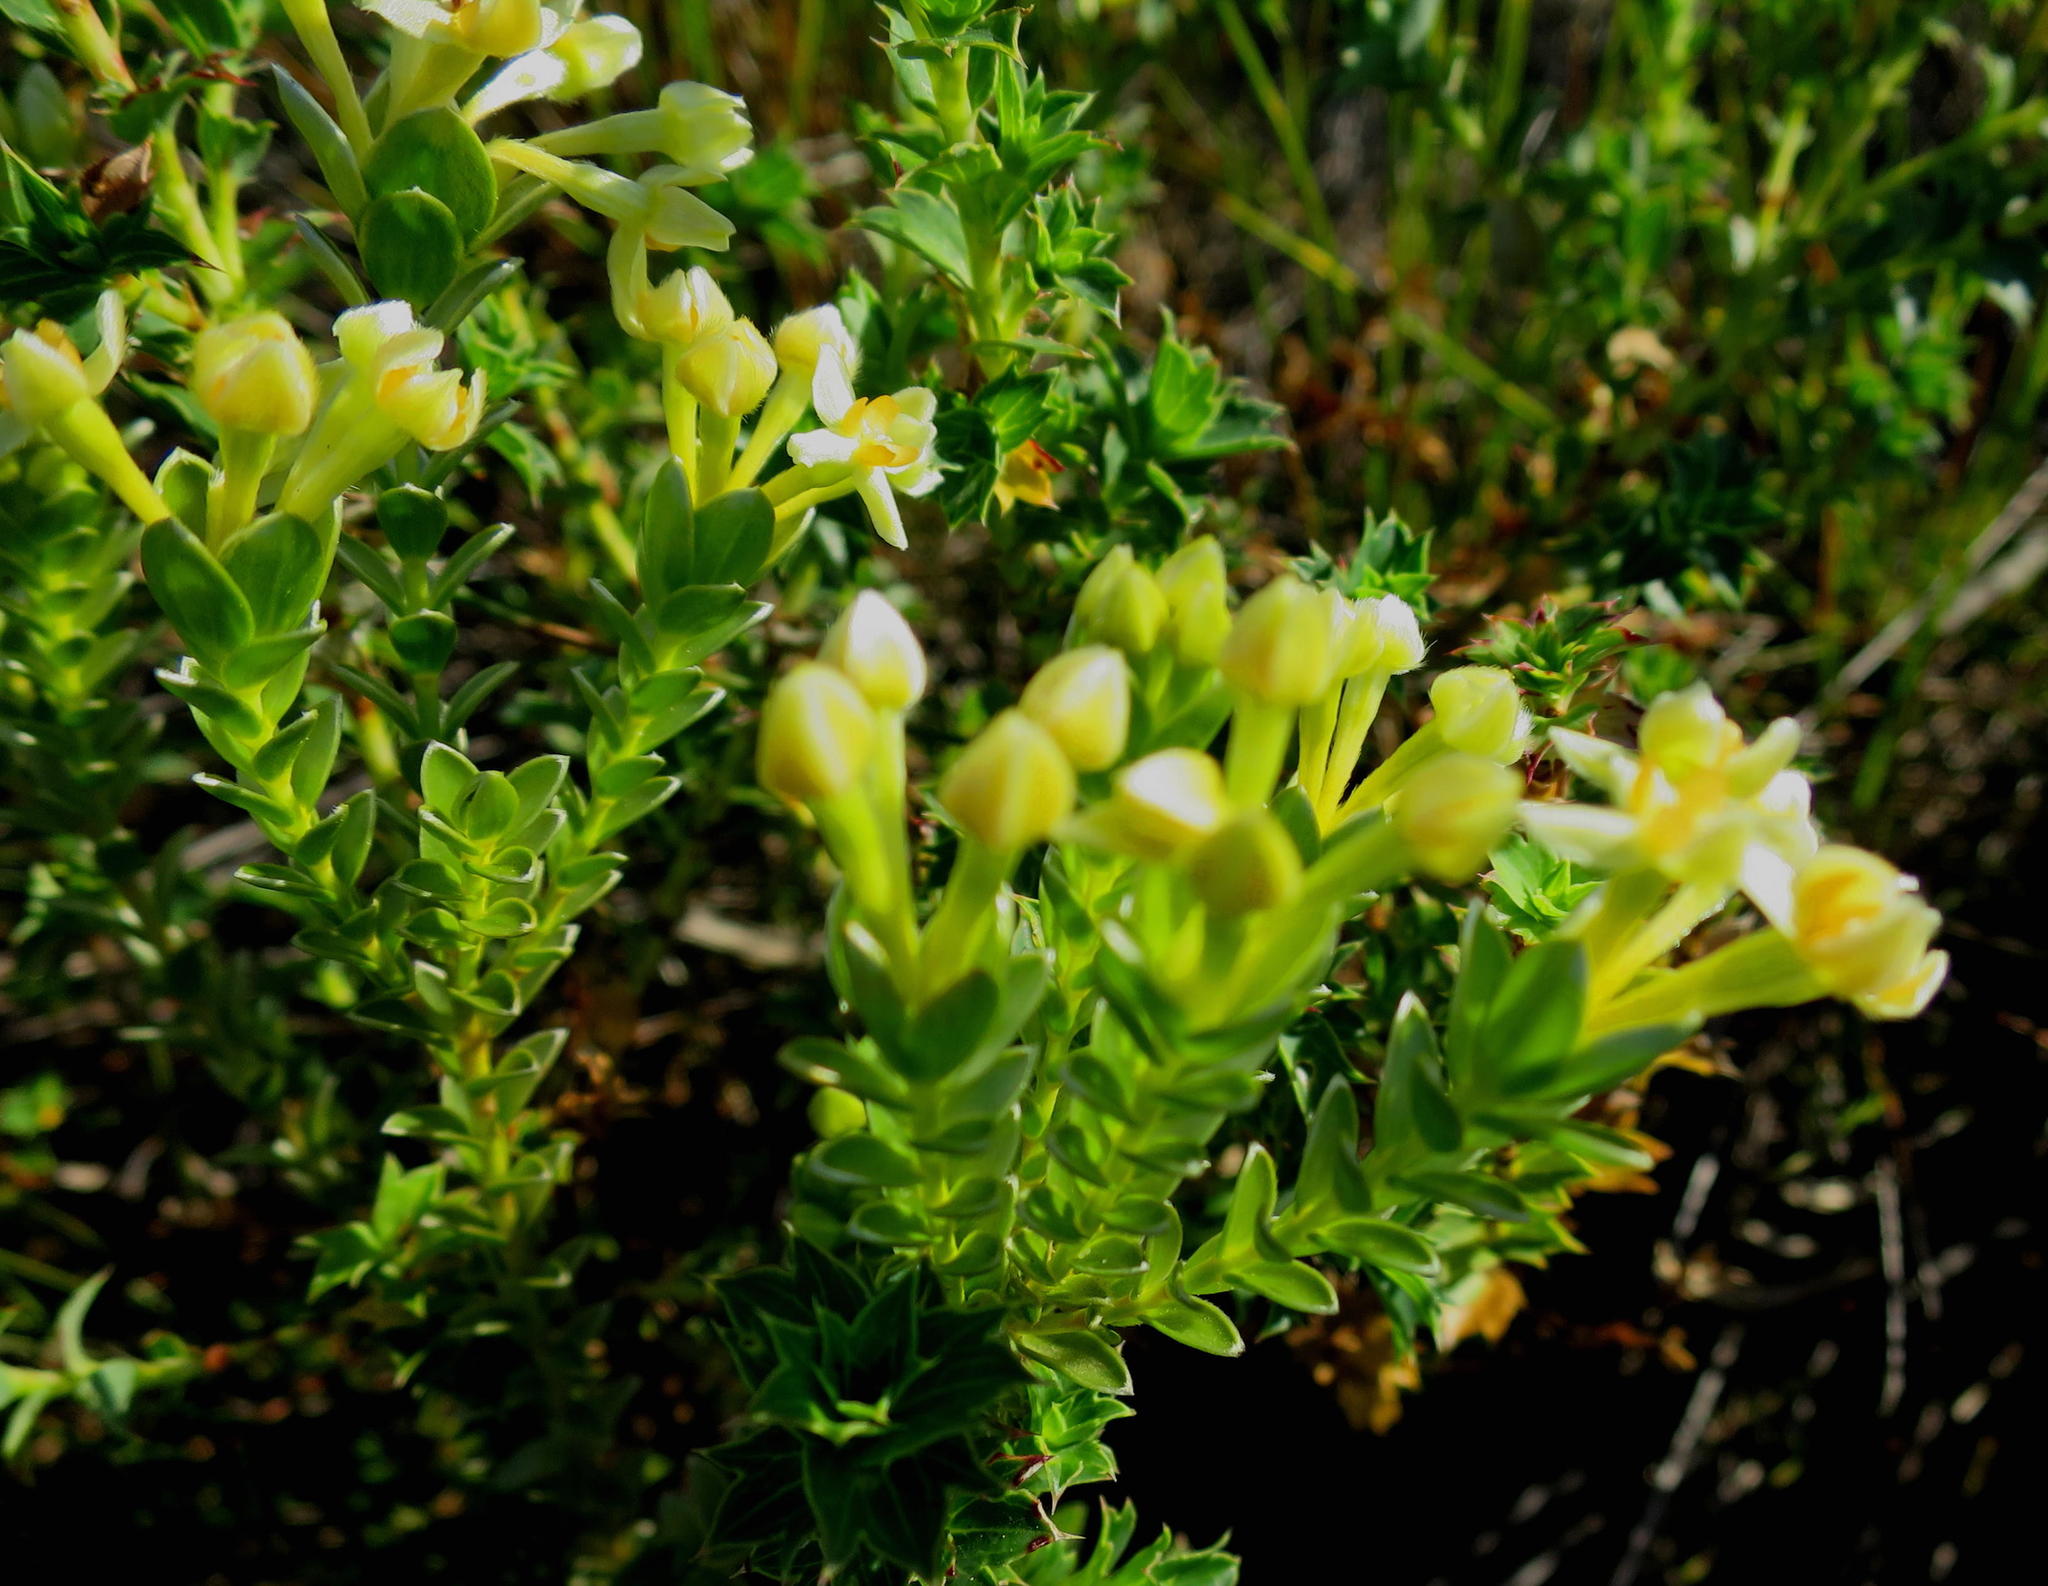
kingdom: Plantae
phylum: Tracheophyta
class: Magnoliopsida
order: Malvales
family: Thymelaeaceae
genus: Gnidia
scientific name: Gnidia chrysophylla
